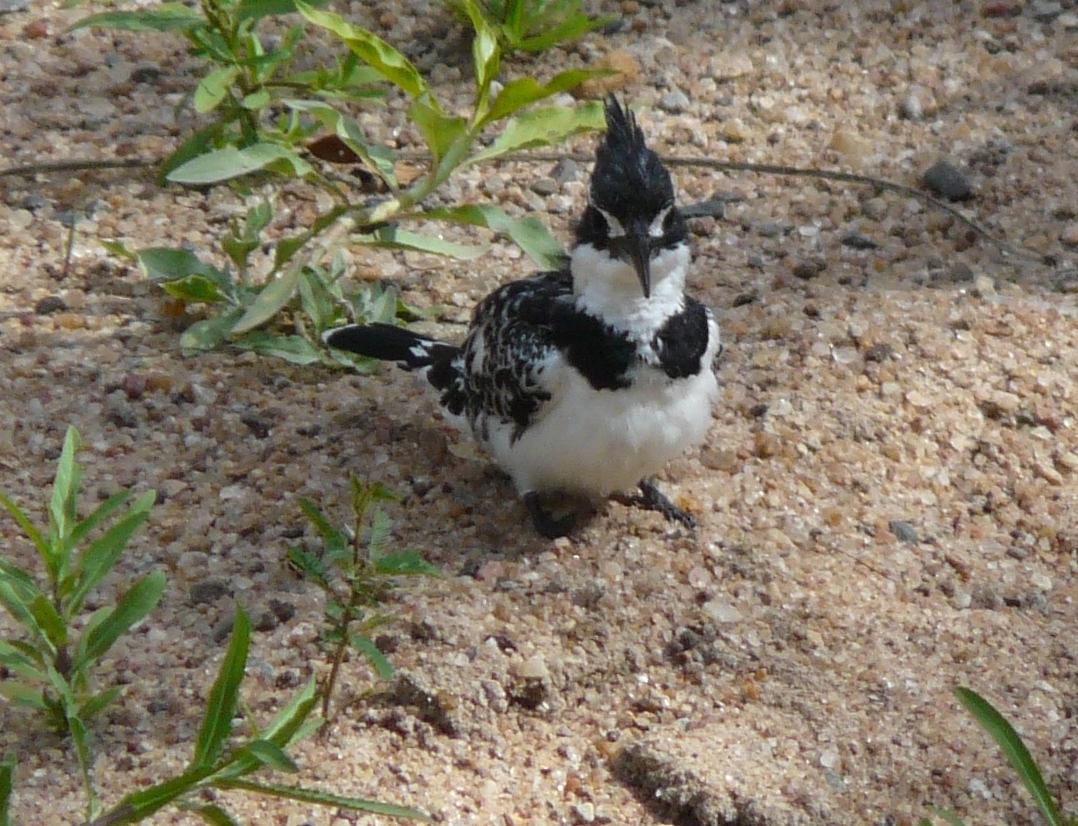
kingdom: Animalia
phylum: Chordata
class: Aves
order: Coraciiformes
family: Alcedinidae
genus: Ceryle
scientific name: Ceryle rudis
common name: Pied kingfisher
